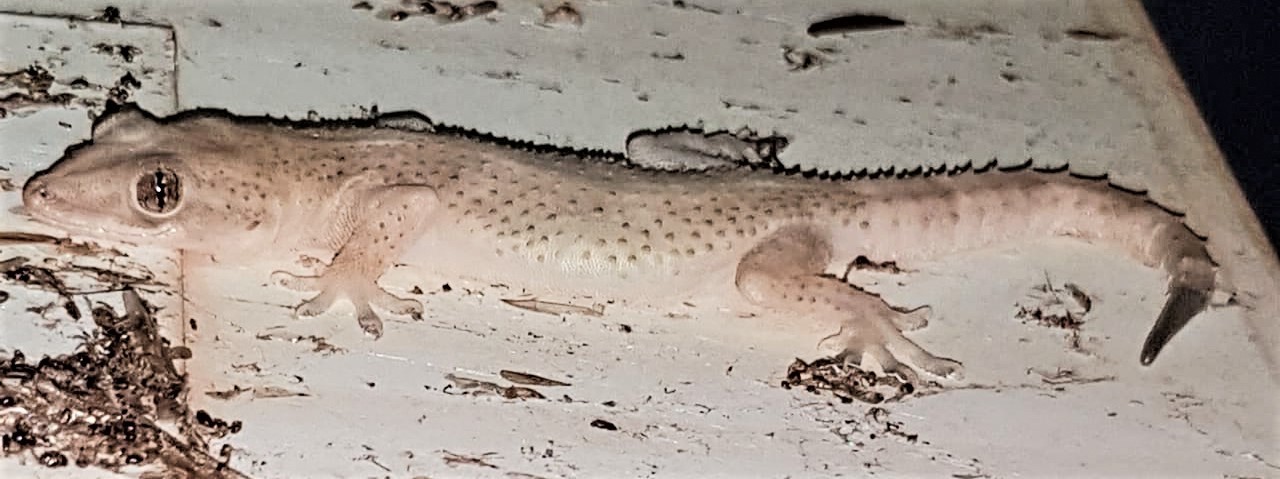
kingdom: Animalia
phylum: Chordata
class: Squamata
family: Gekkonidae
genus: Hemidactylus
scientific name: Hemidactylus mabouia
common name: House gecko
